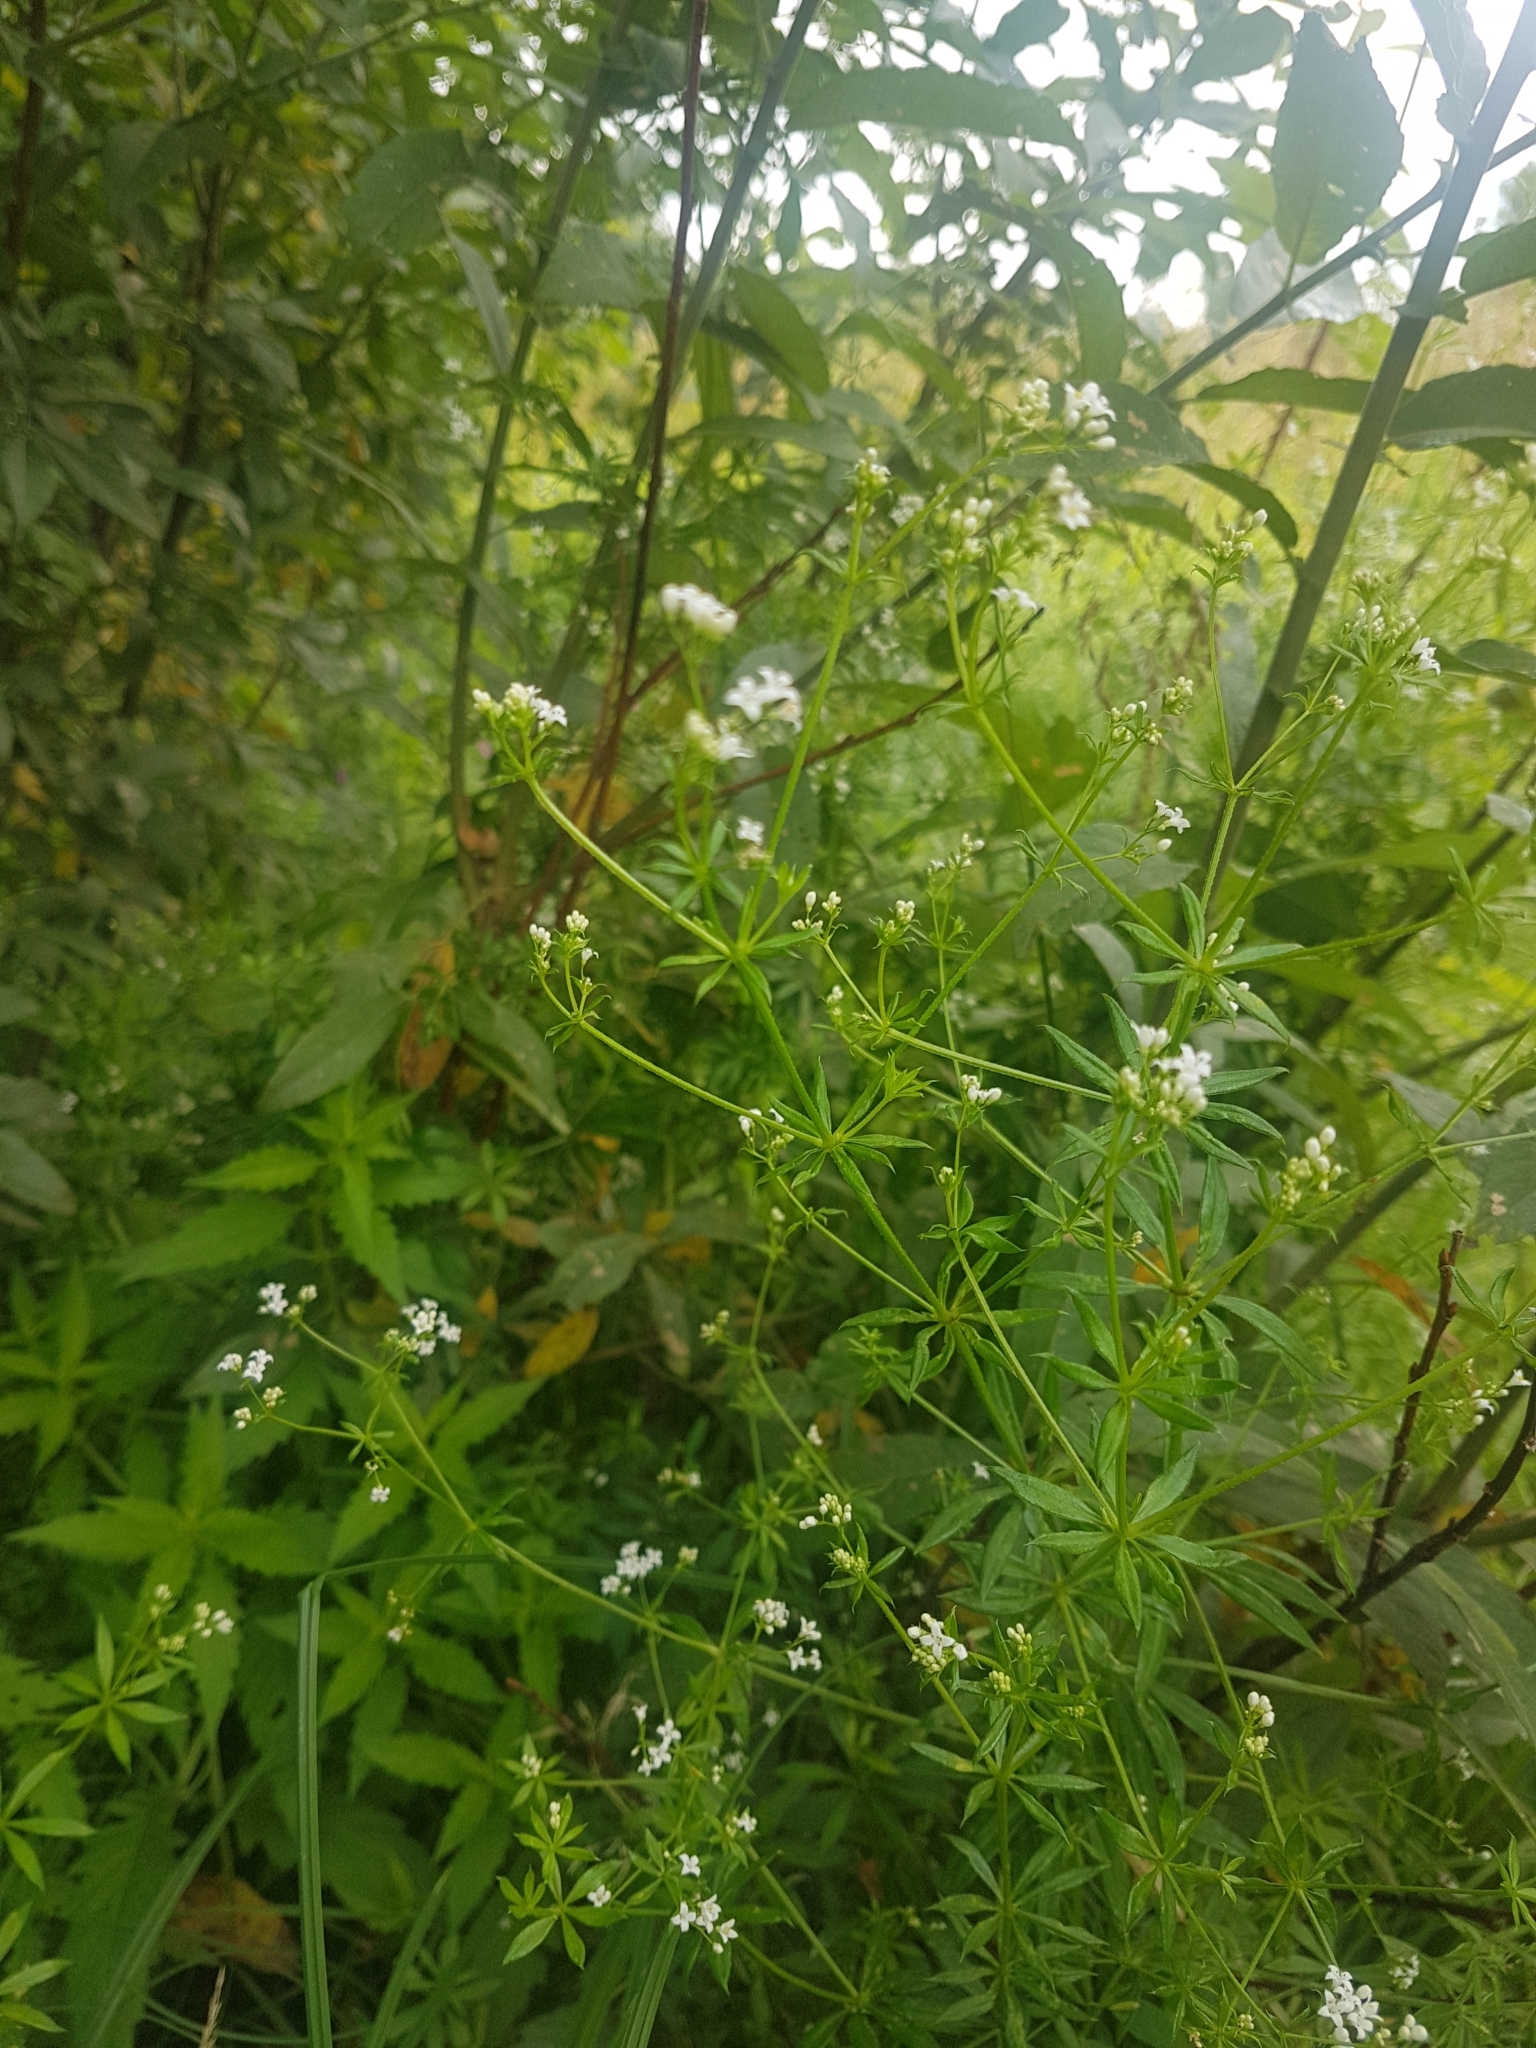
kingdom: Plantae
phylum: Tracheophyta
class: Magnoliopsida
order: Gentianales
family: Rubiaceae
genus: Galium
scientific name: Galium rivale
